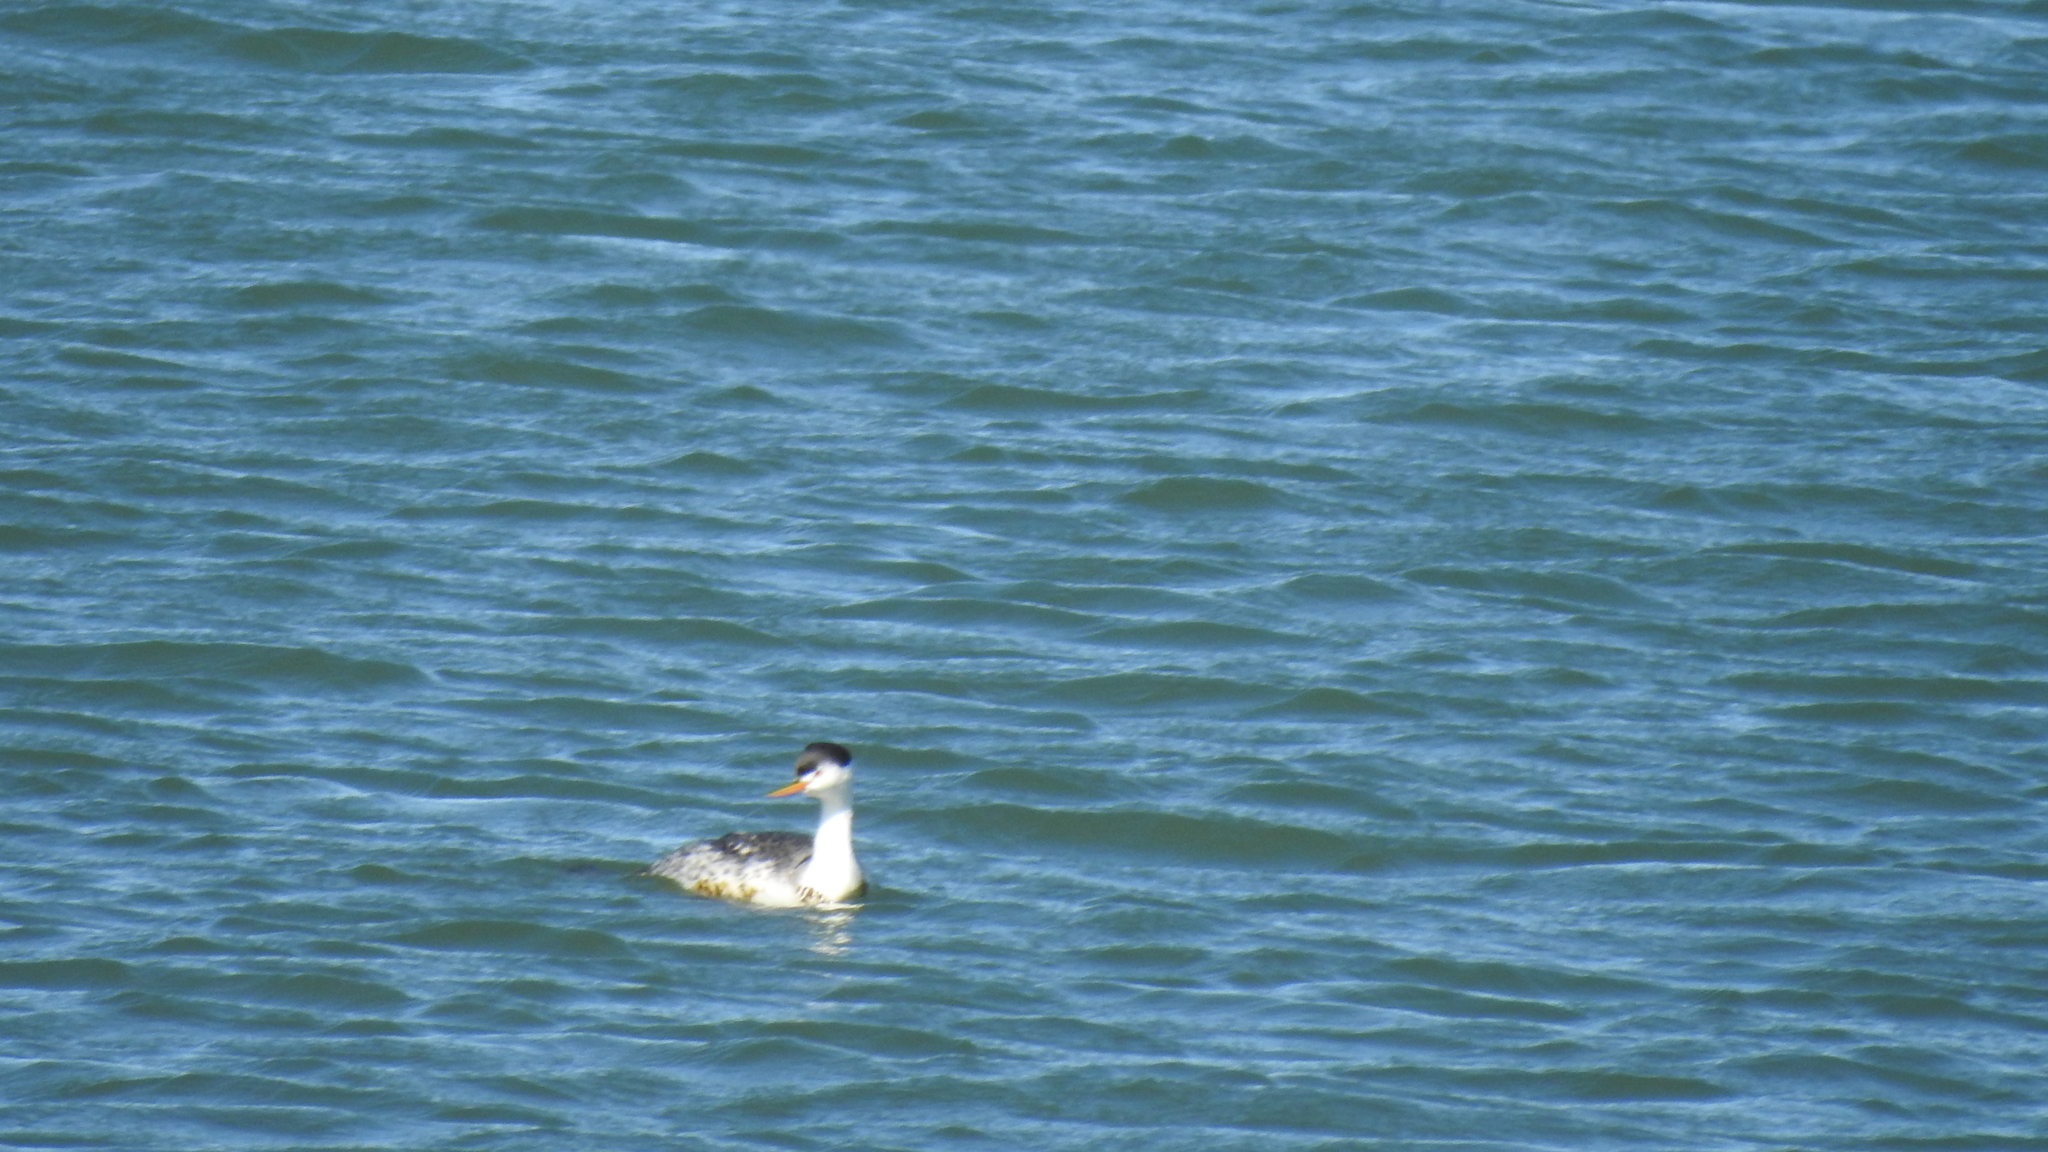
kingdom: Animalia
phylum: Chordata
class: Aves
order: Podicipediformes
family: Podicipedidae
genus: Aechmophorus
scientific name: Aechmophorus clarkii
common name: Clark's grebe
